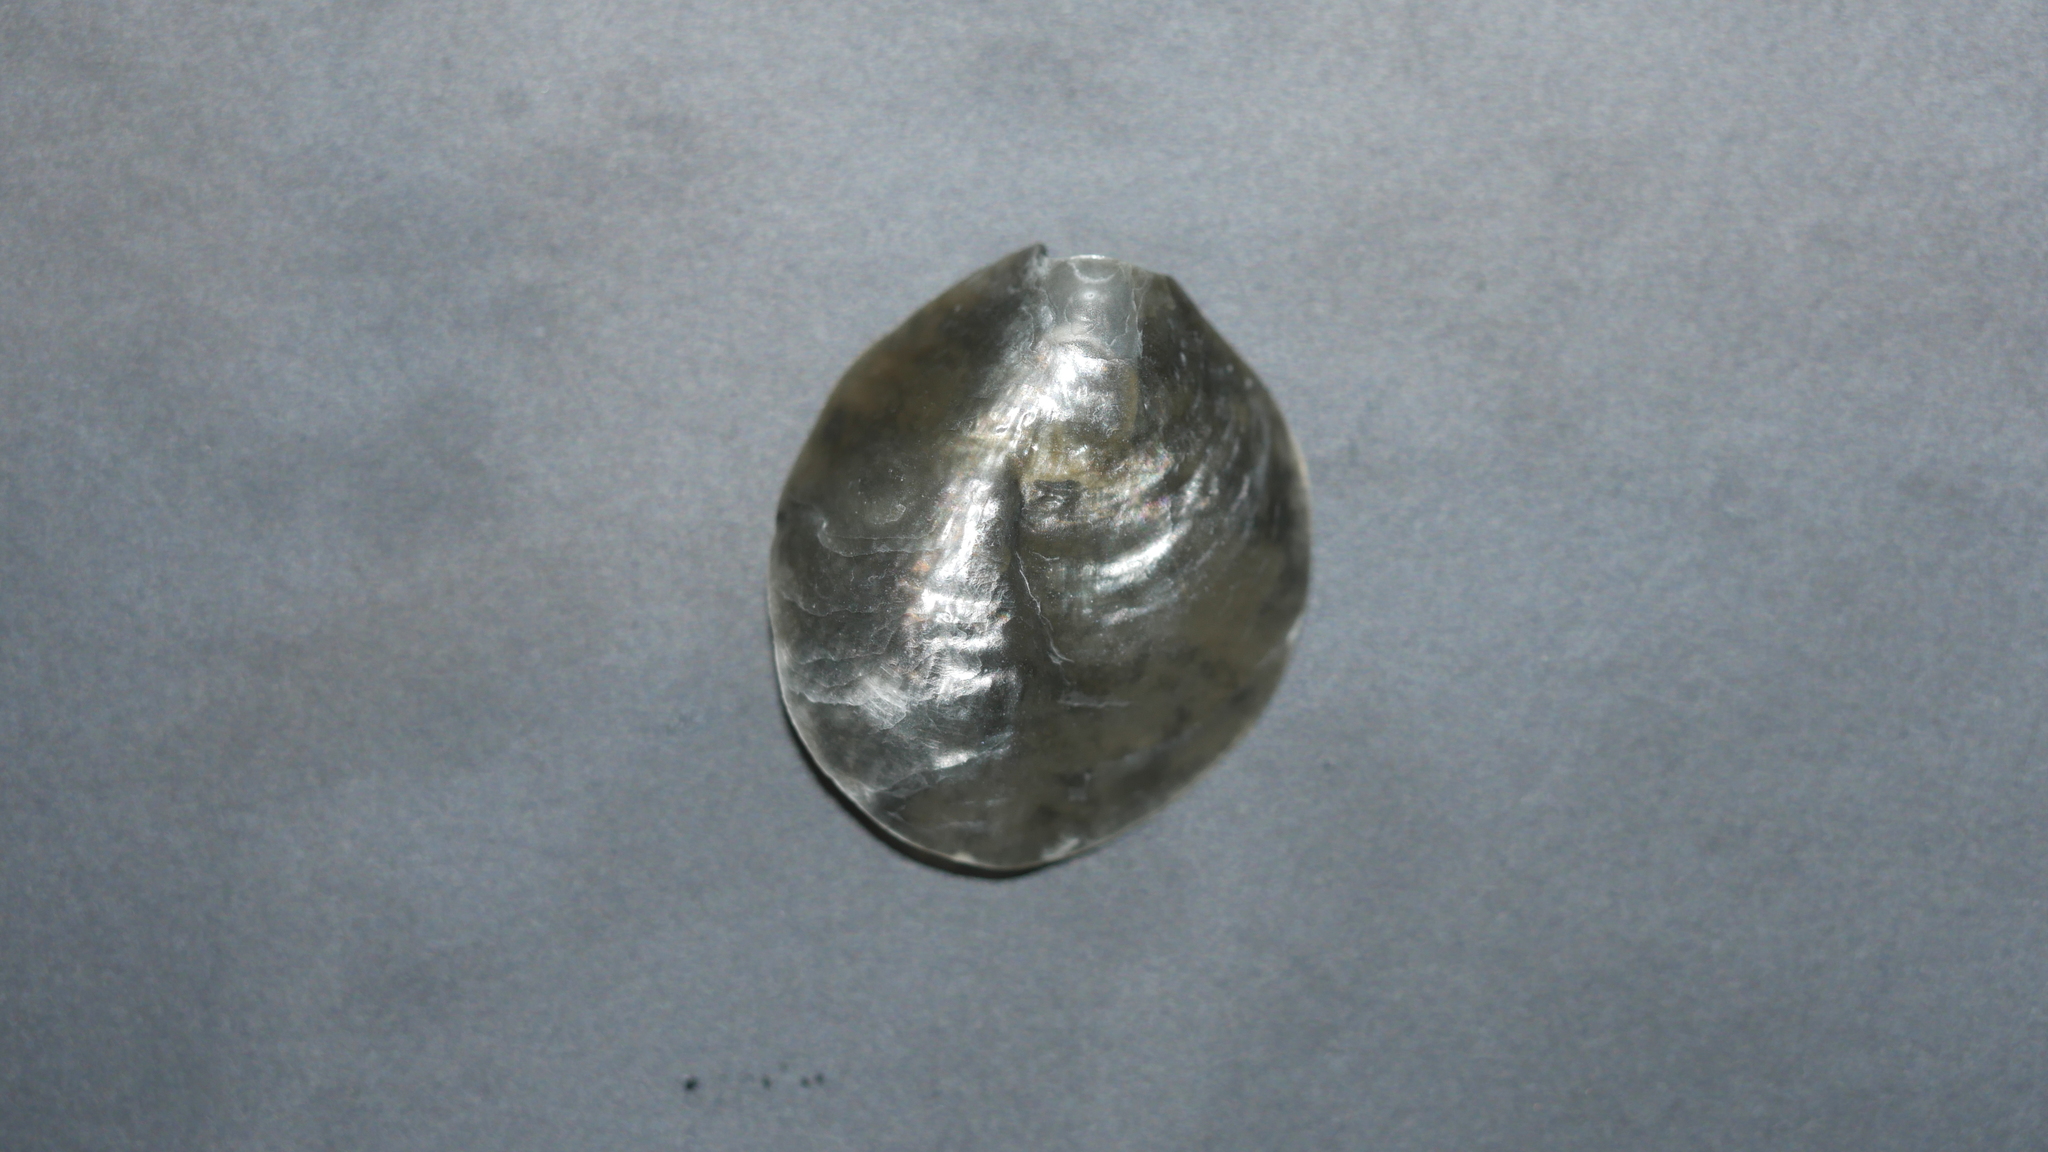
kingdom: Animalia
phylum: Mollusca
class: Bivalvia
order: Pectinida
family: Anomiidae
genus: Anomia
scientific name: Anomia simplex
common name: Common jingle shell
